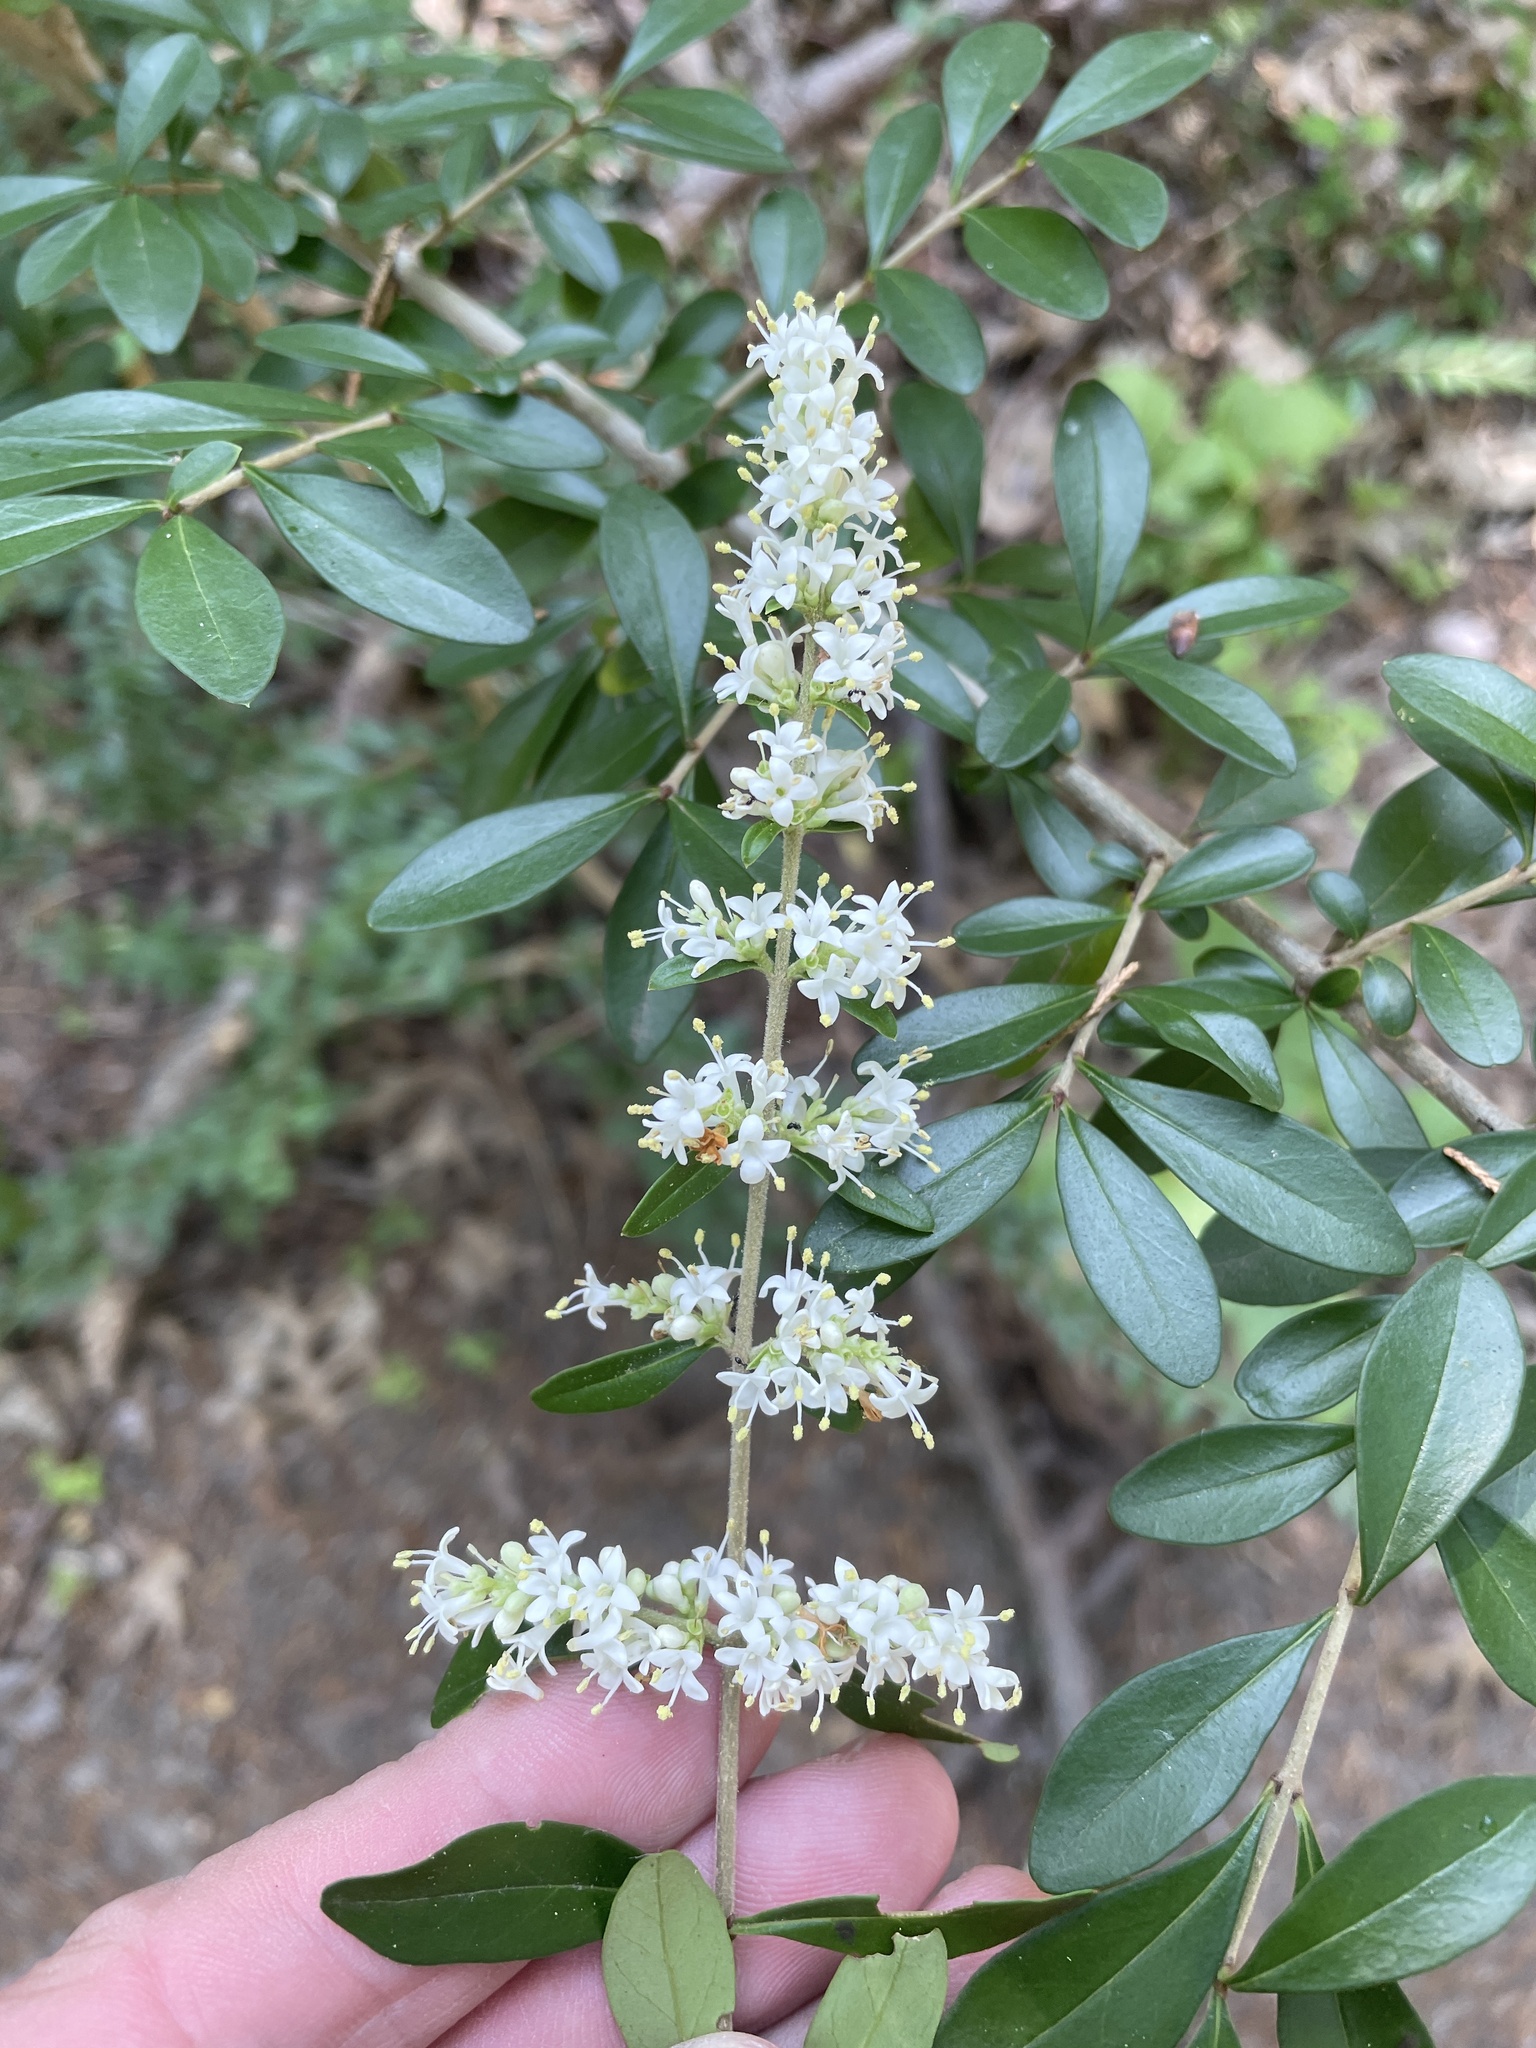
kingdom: Plantae
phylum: Tracheophyta
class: Magnoliopsida
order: Lamiales
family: Oleaceae
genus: Ligustrum
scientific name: Ligustrum quihoui
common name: Waxyleaf privet
